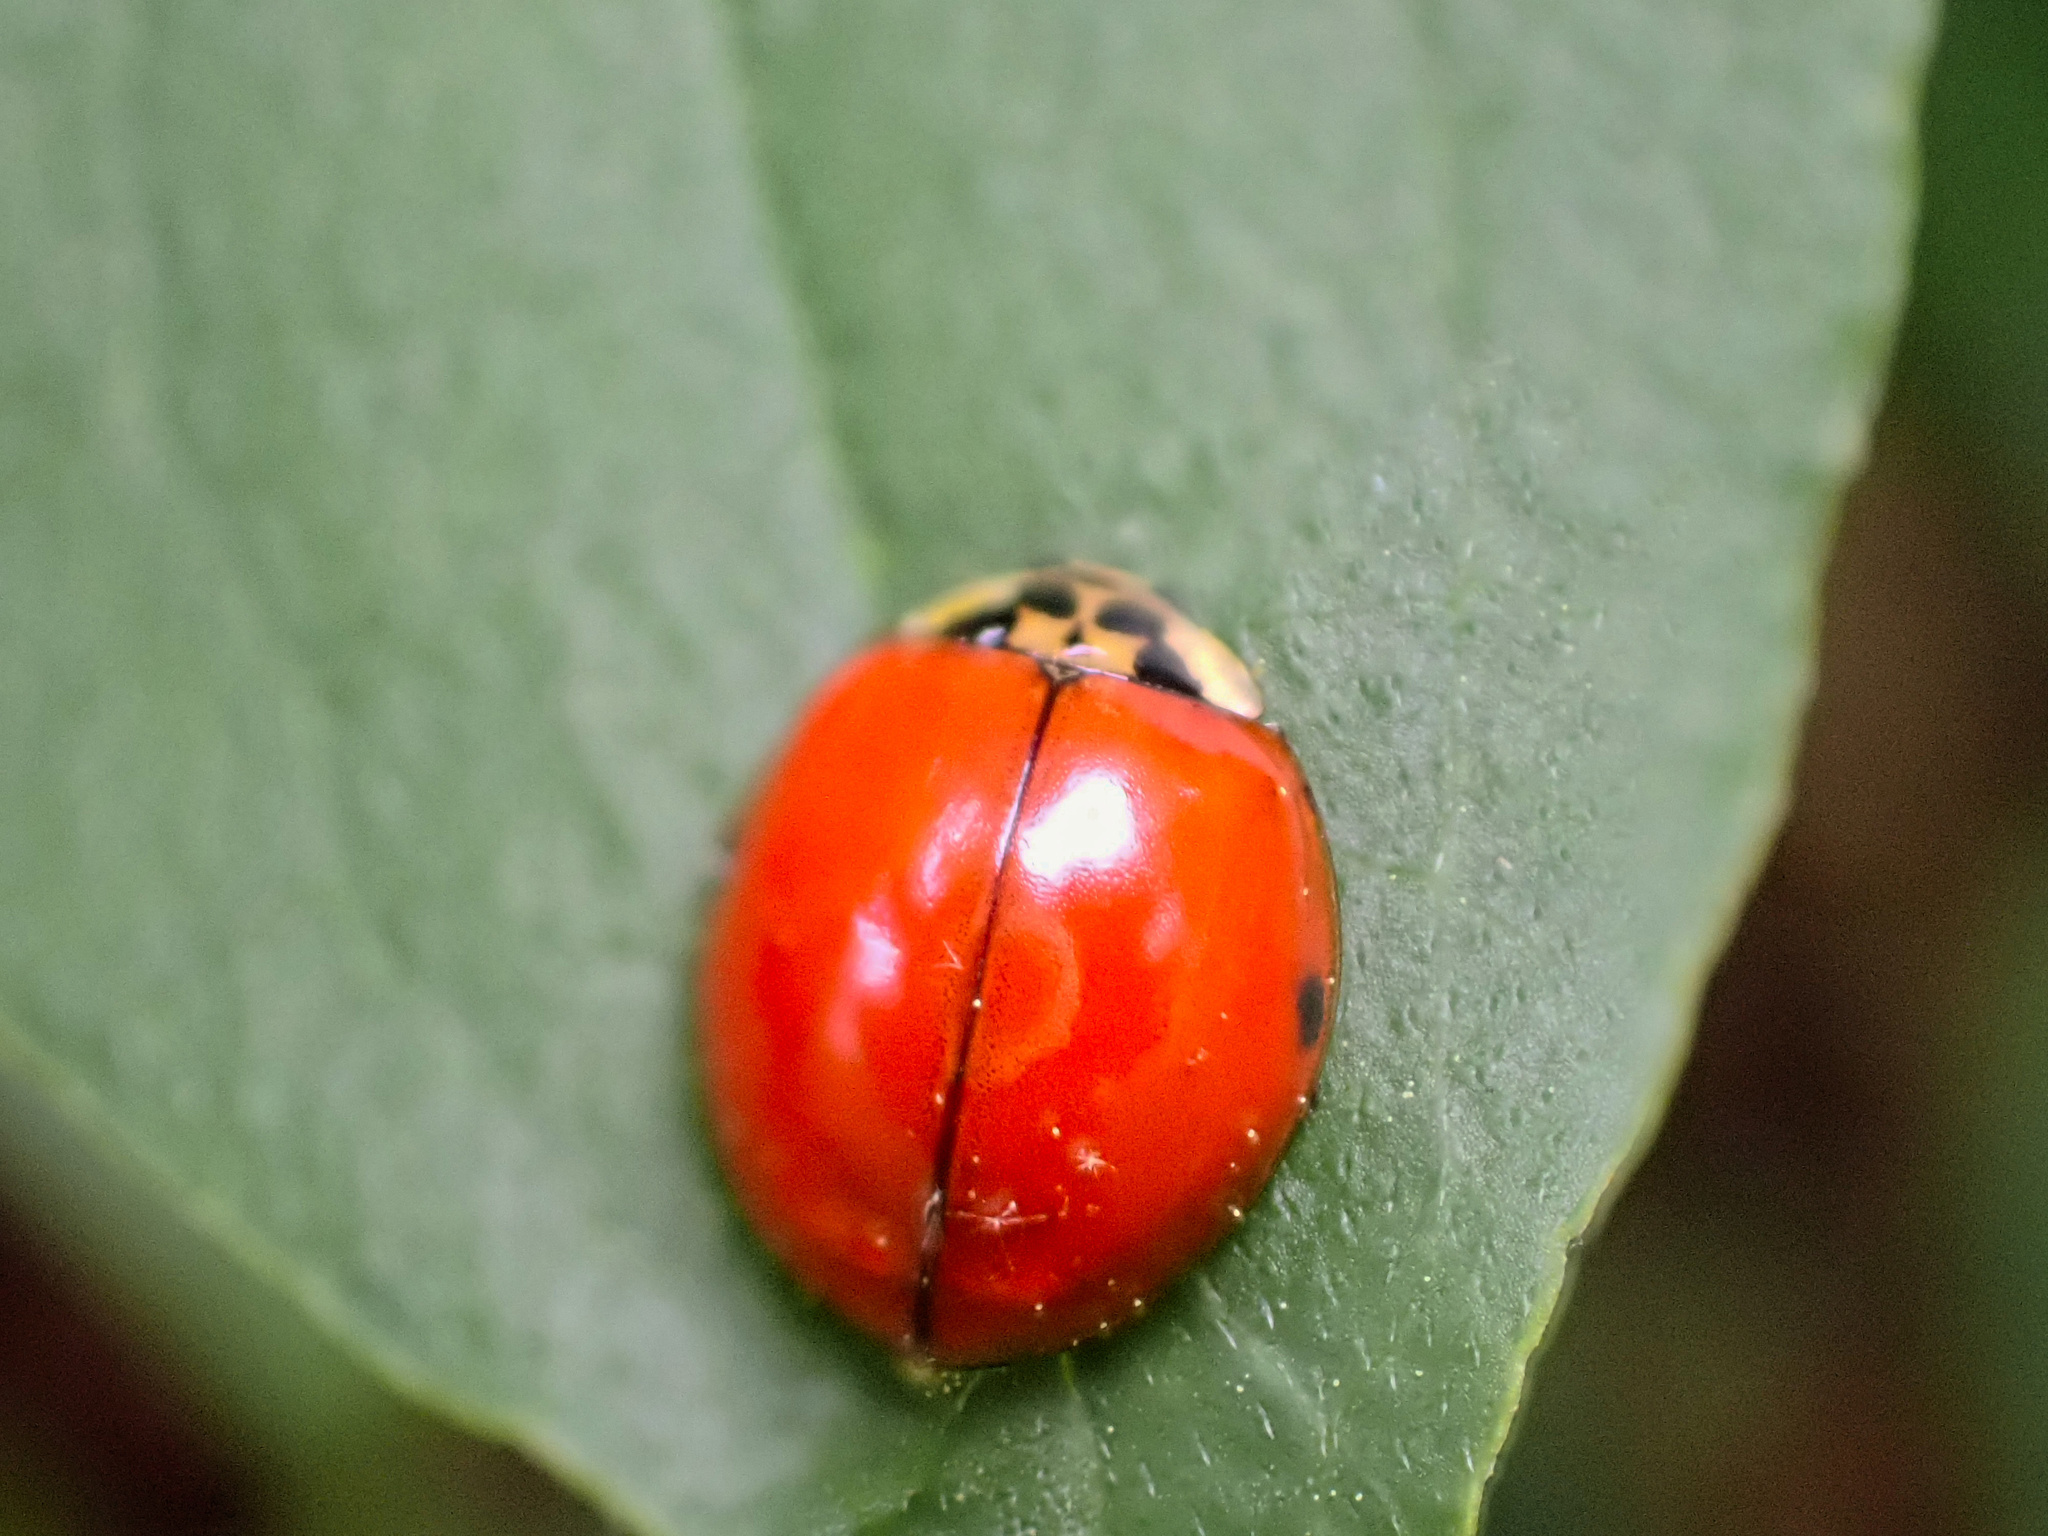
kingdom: Animalia
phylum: Arthropoda
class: Insecta
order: Coleoptera
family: Coccinellidae
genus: Harmonia
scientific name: Harmonia axyridis
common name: Harlequin ladybird
